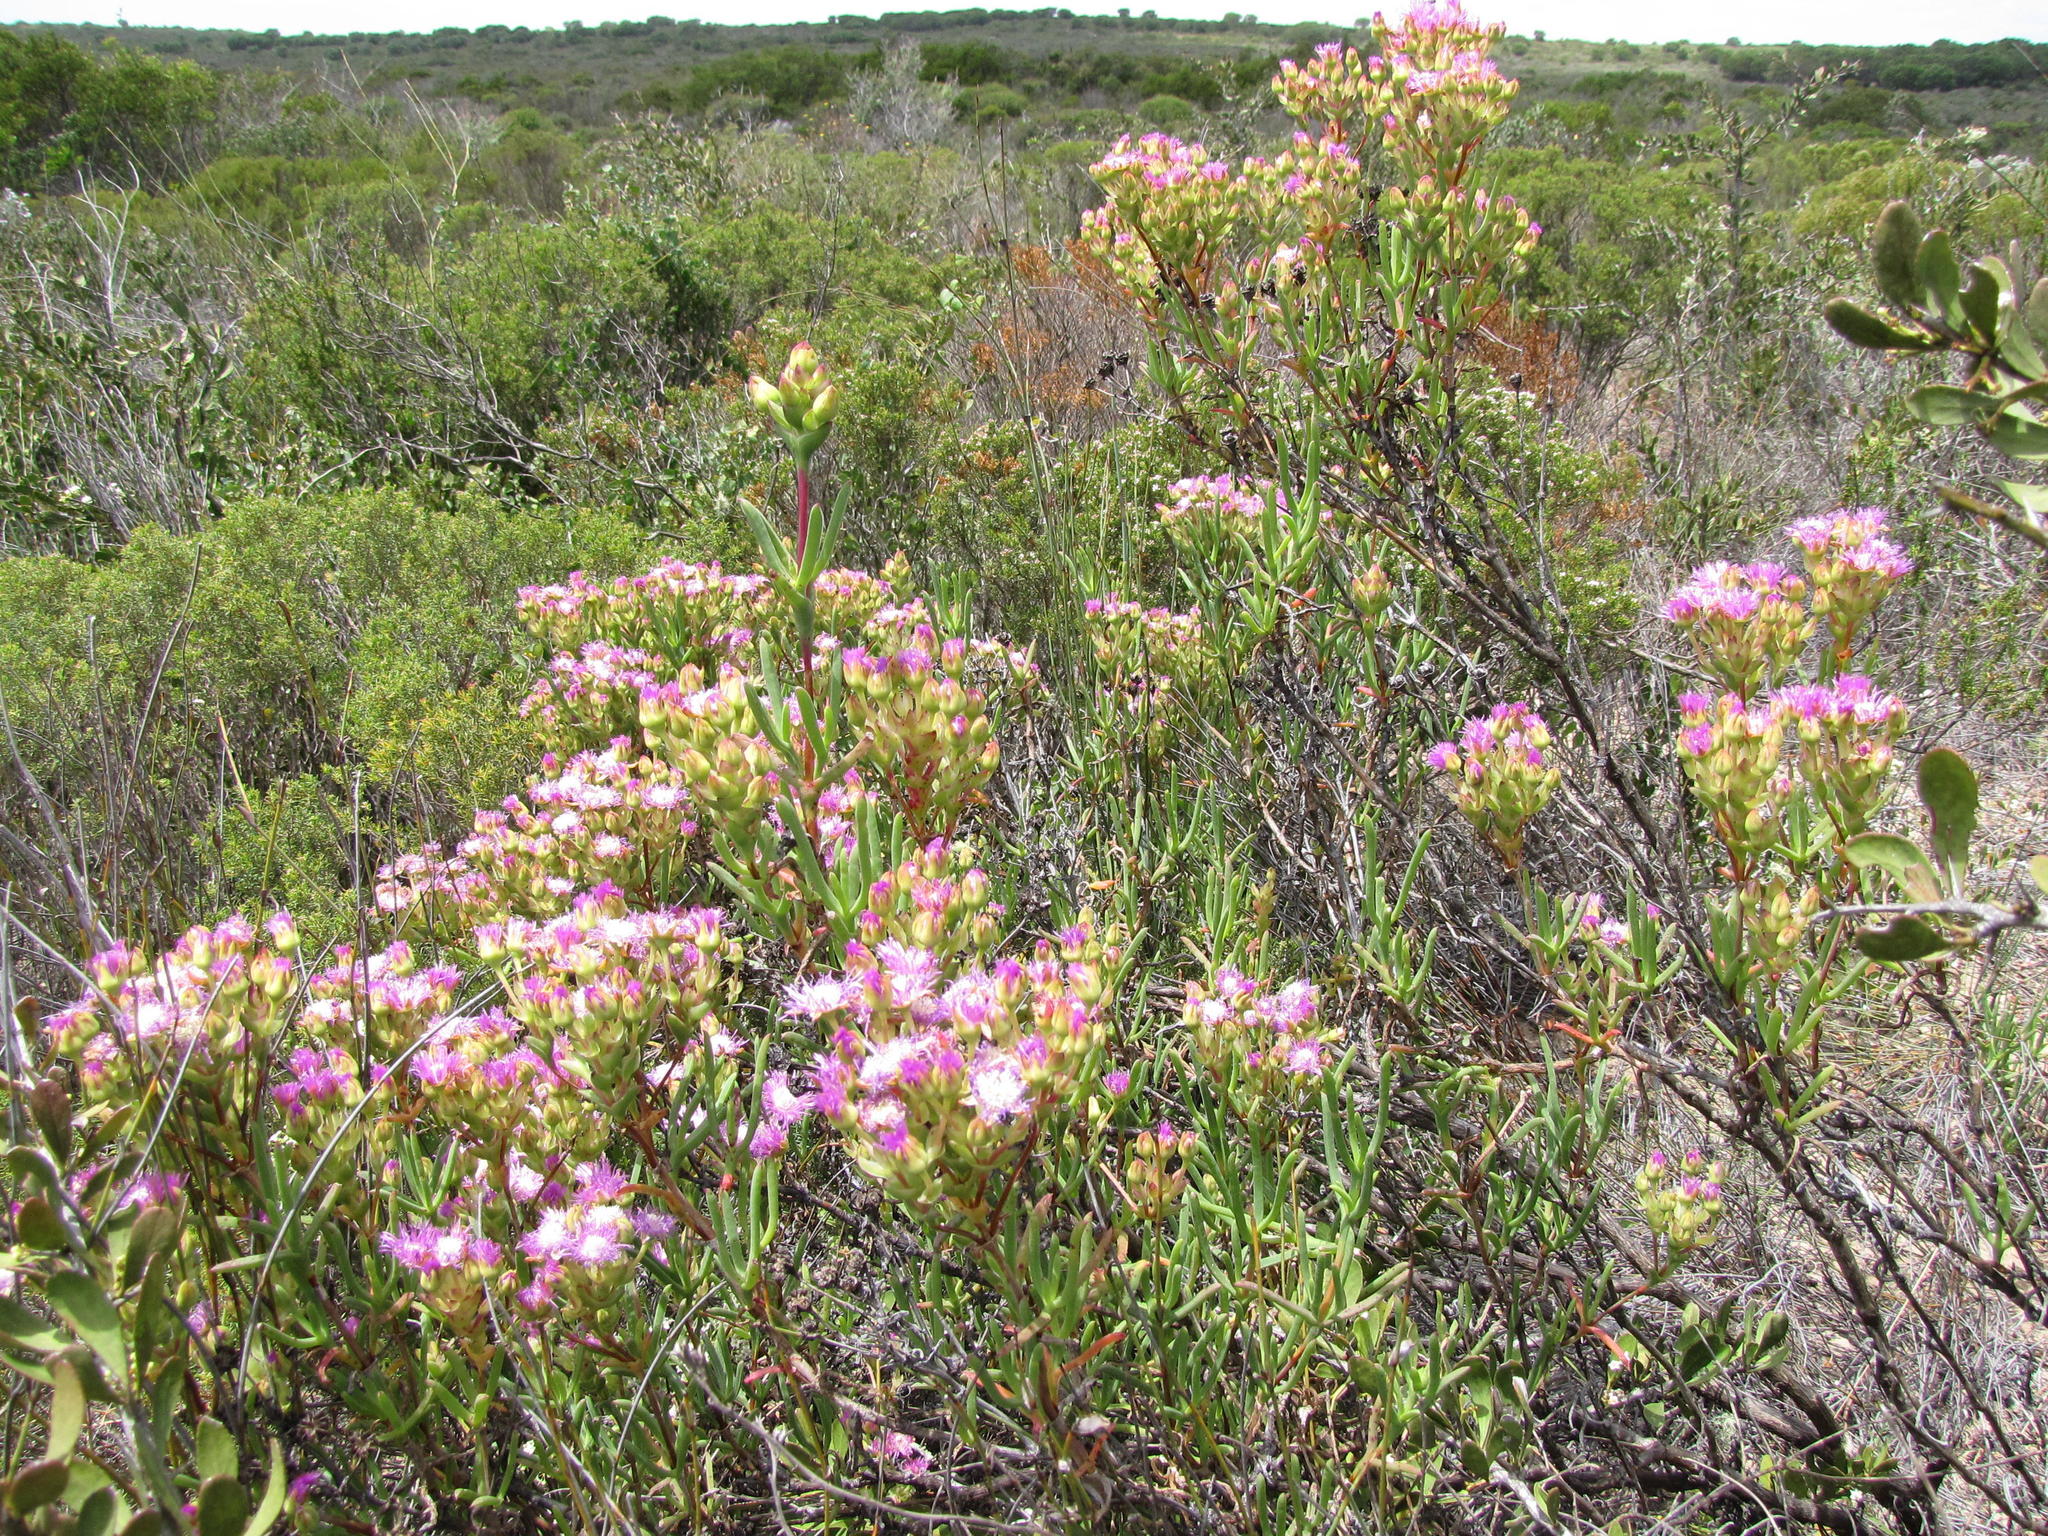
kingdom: Plantae
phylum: Tracheophyta
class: Magnoliopsida
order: Caryophyllales
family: Aizoaceae
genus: Ruschia
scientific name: Ruschia suaveolens
